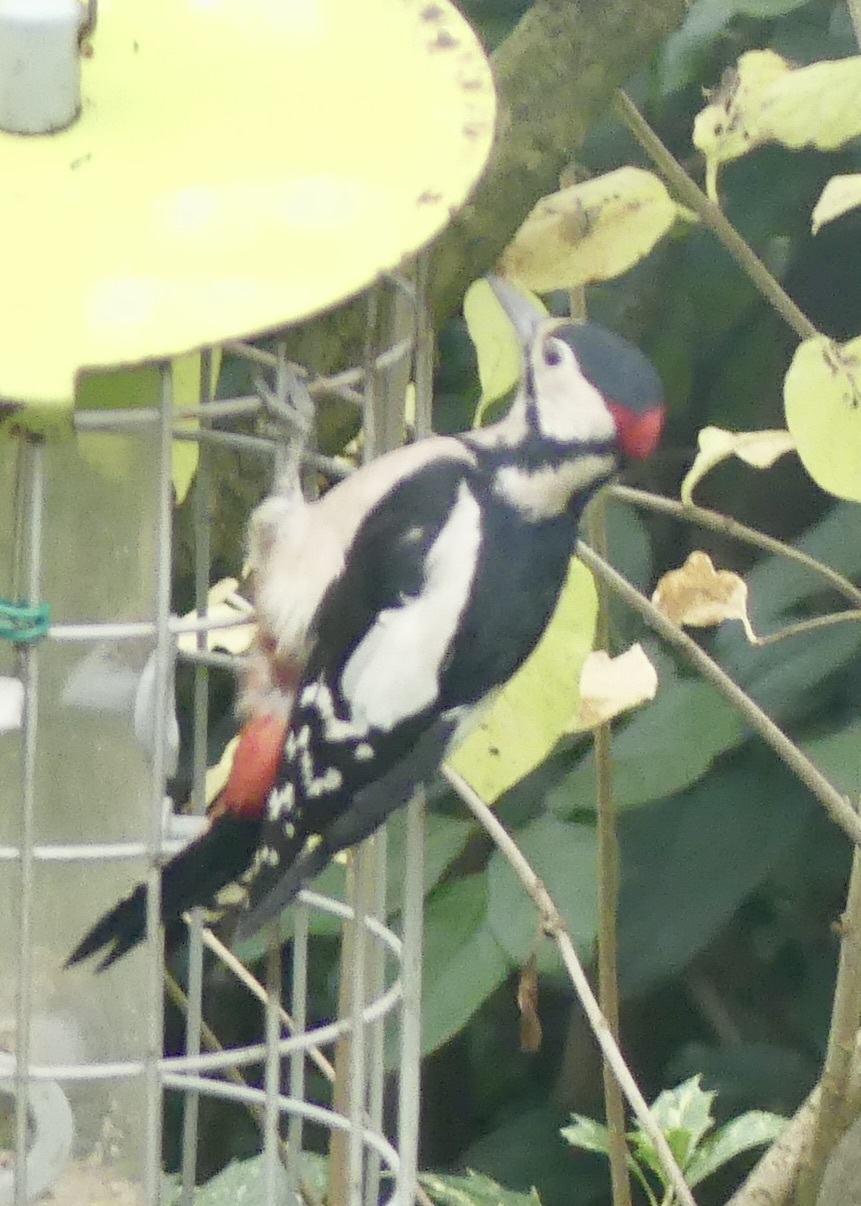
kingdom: Animalia
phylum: Chordata
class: Aves
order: Piciformes
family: Picidae
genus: Dendrocopos
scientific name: Dendrocopos major
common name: Great spotted woodpecker
